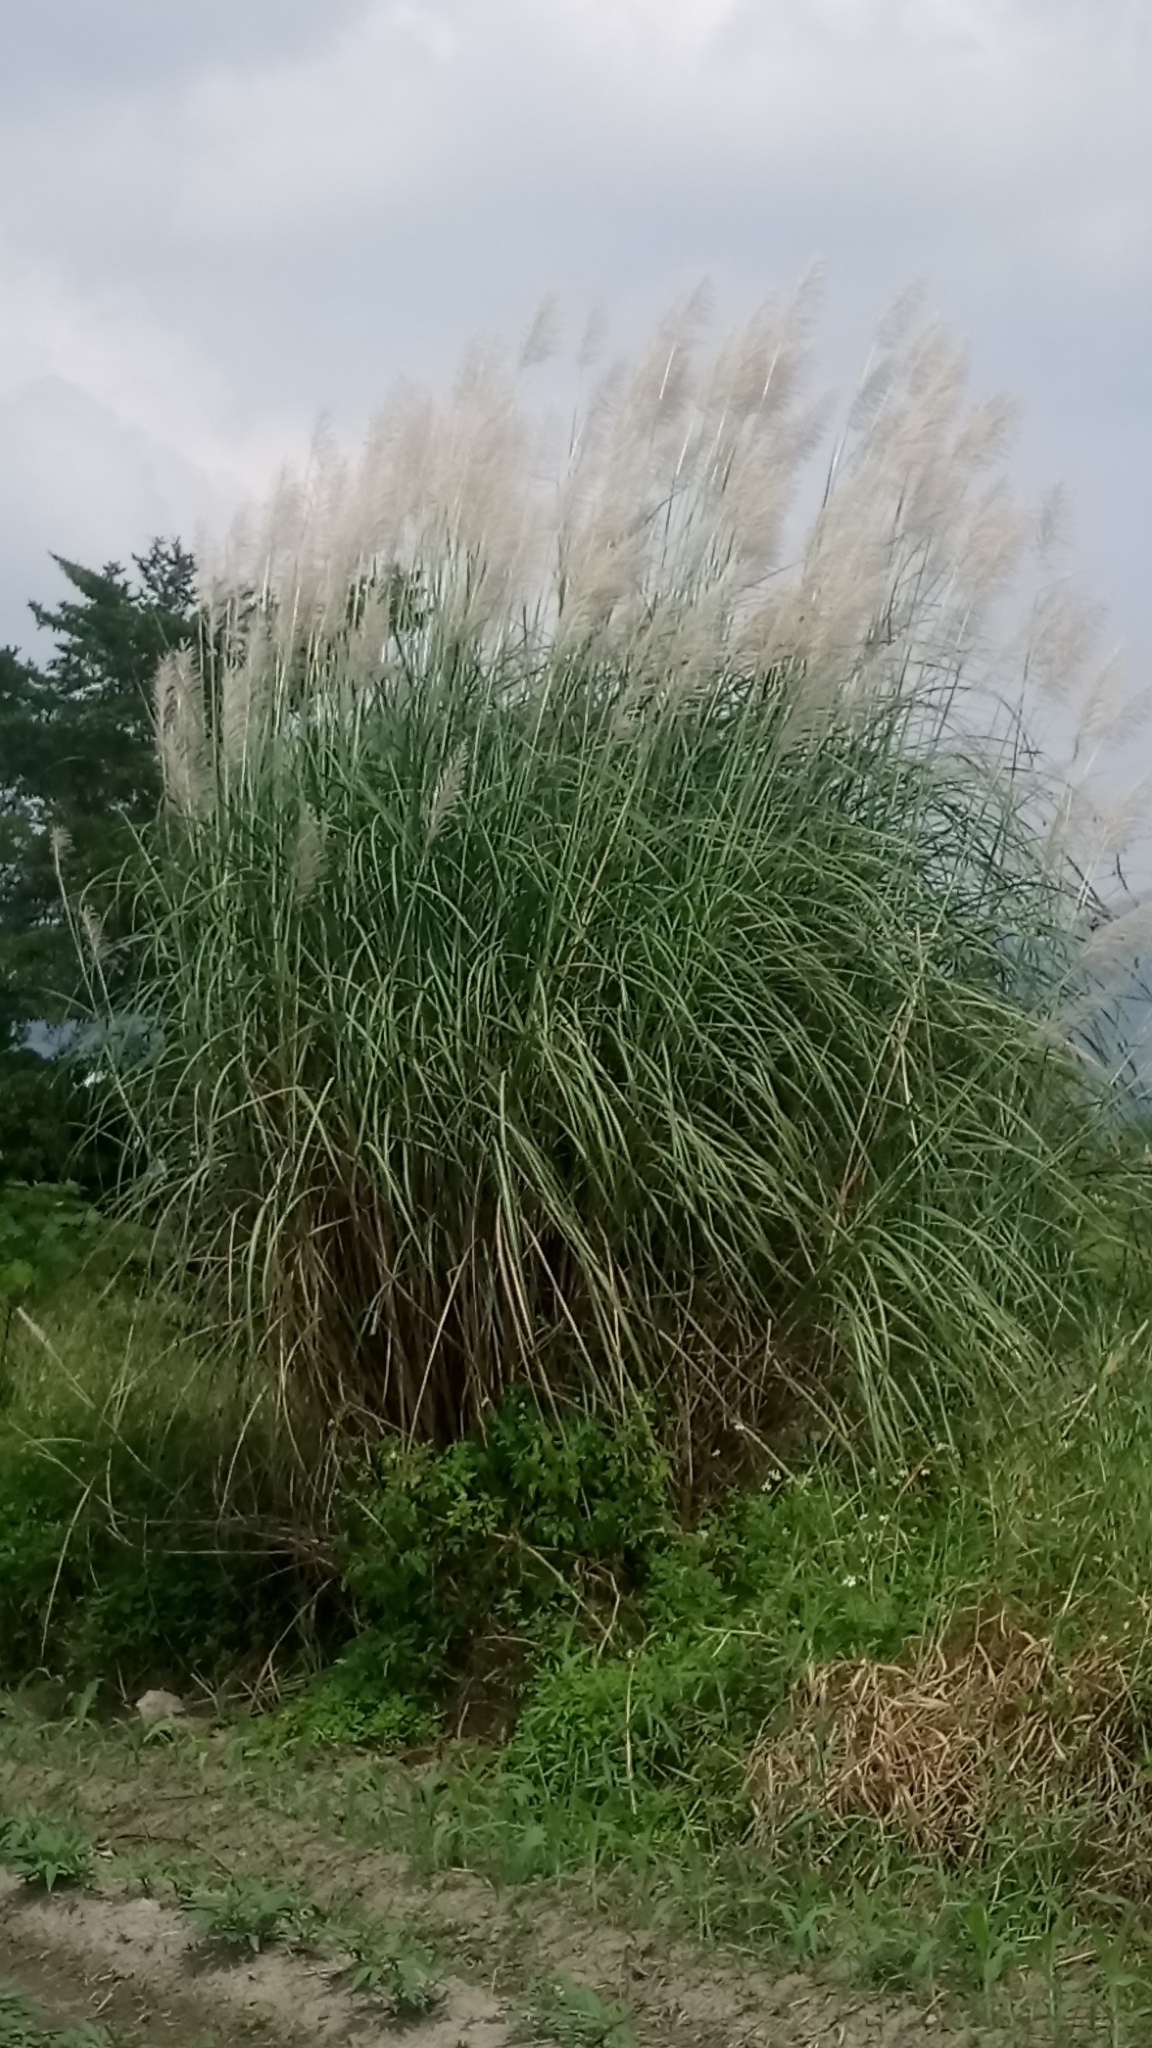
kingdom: Plantae
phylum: Tracheophyta
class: Liliopsida
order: Poales
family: Poaceae
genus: Saccharum
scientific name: Saccharum spontaneum
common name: Wild sugarcane
